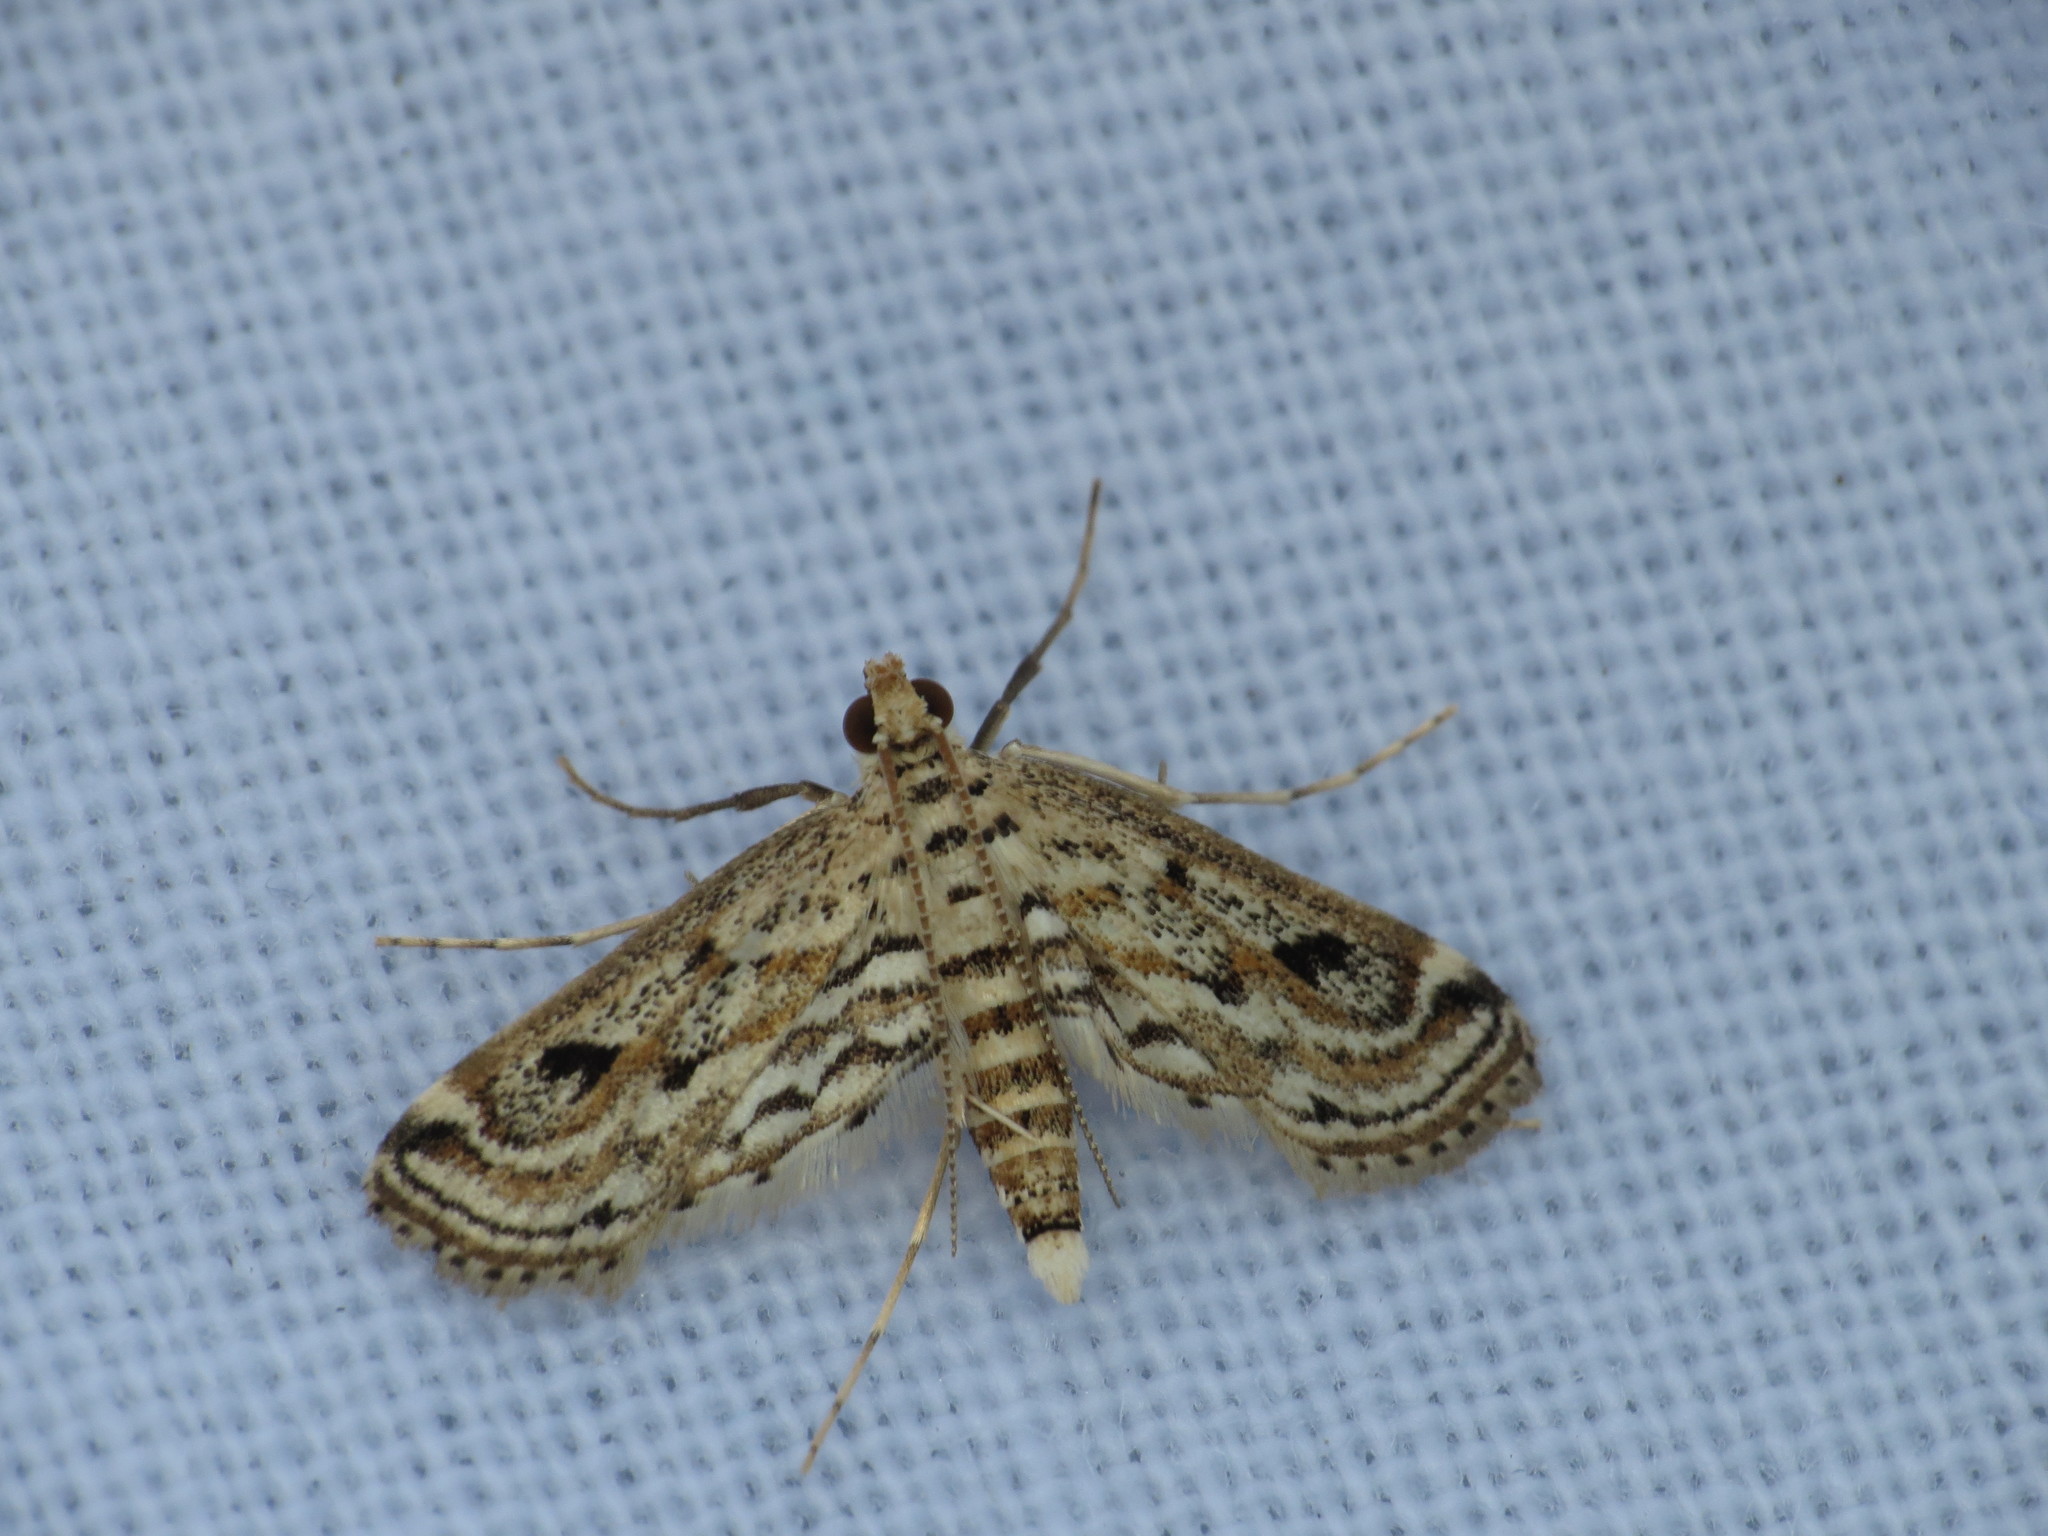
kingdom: Animalia
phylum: Arthropoda
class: Insecta
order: Lepidoptera
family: Crambidae
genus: Parapoynx
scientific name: Parapoynx allionealis
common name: Bladderwort casemaker
